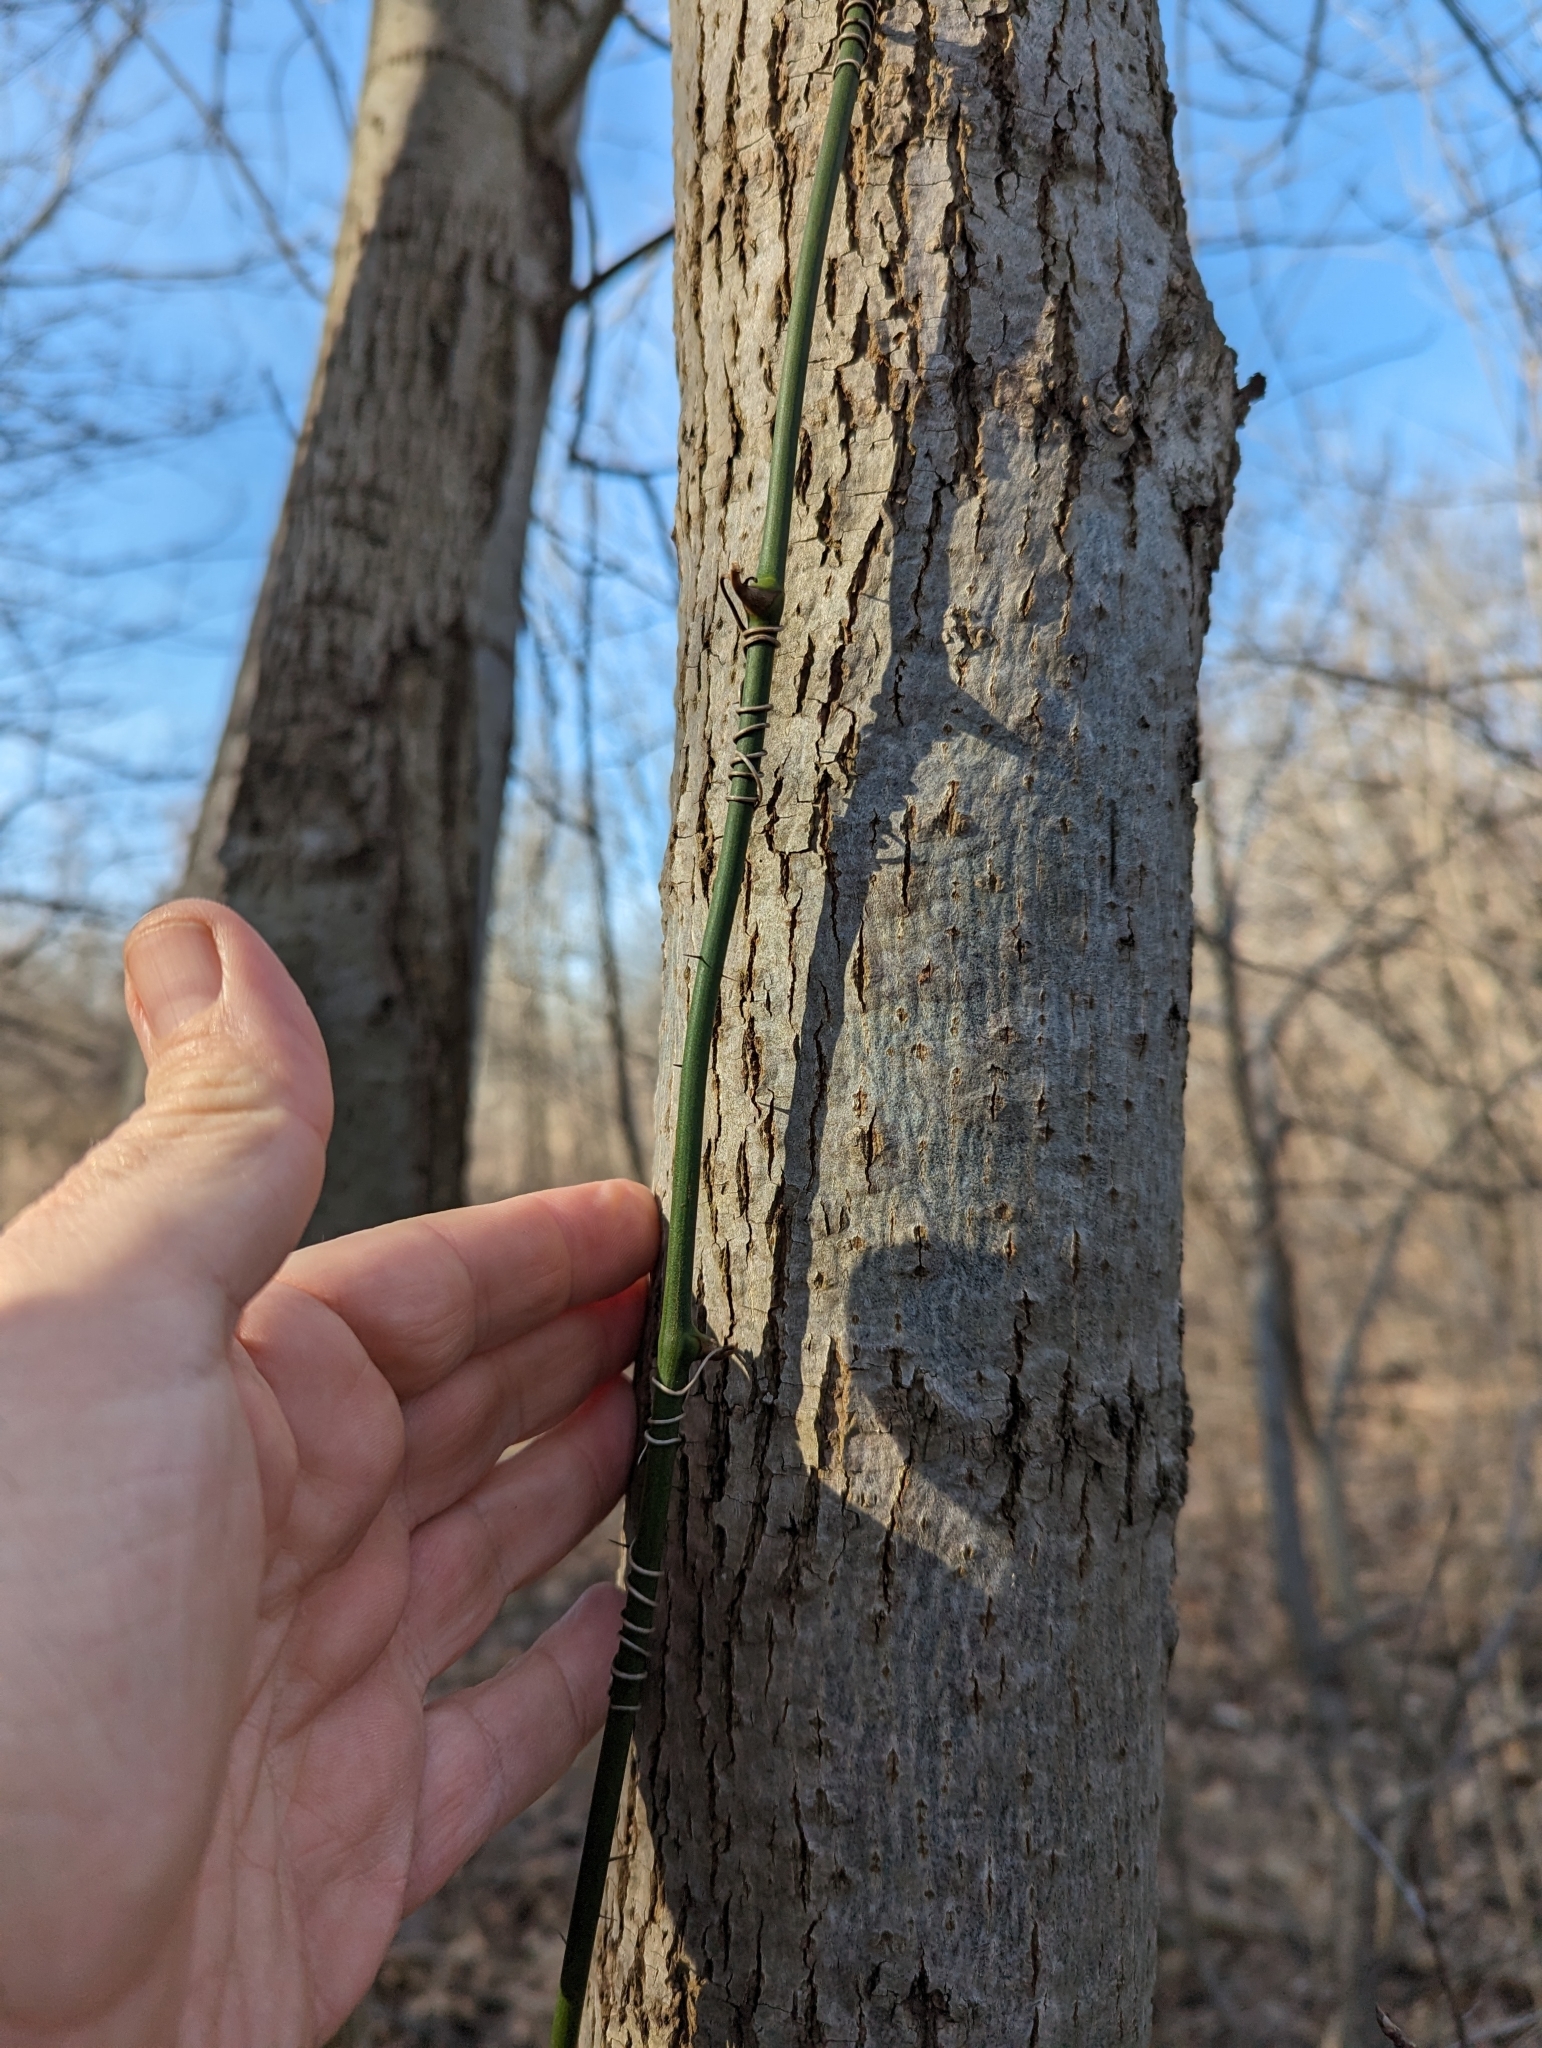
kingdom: Plantae
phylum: Tracheophyta
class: Liliopsida
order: Liliales
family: Smilacaceae
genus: Smilax
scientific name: Smilax tamnoides
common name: Hellfetter
